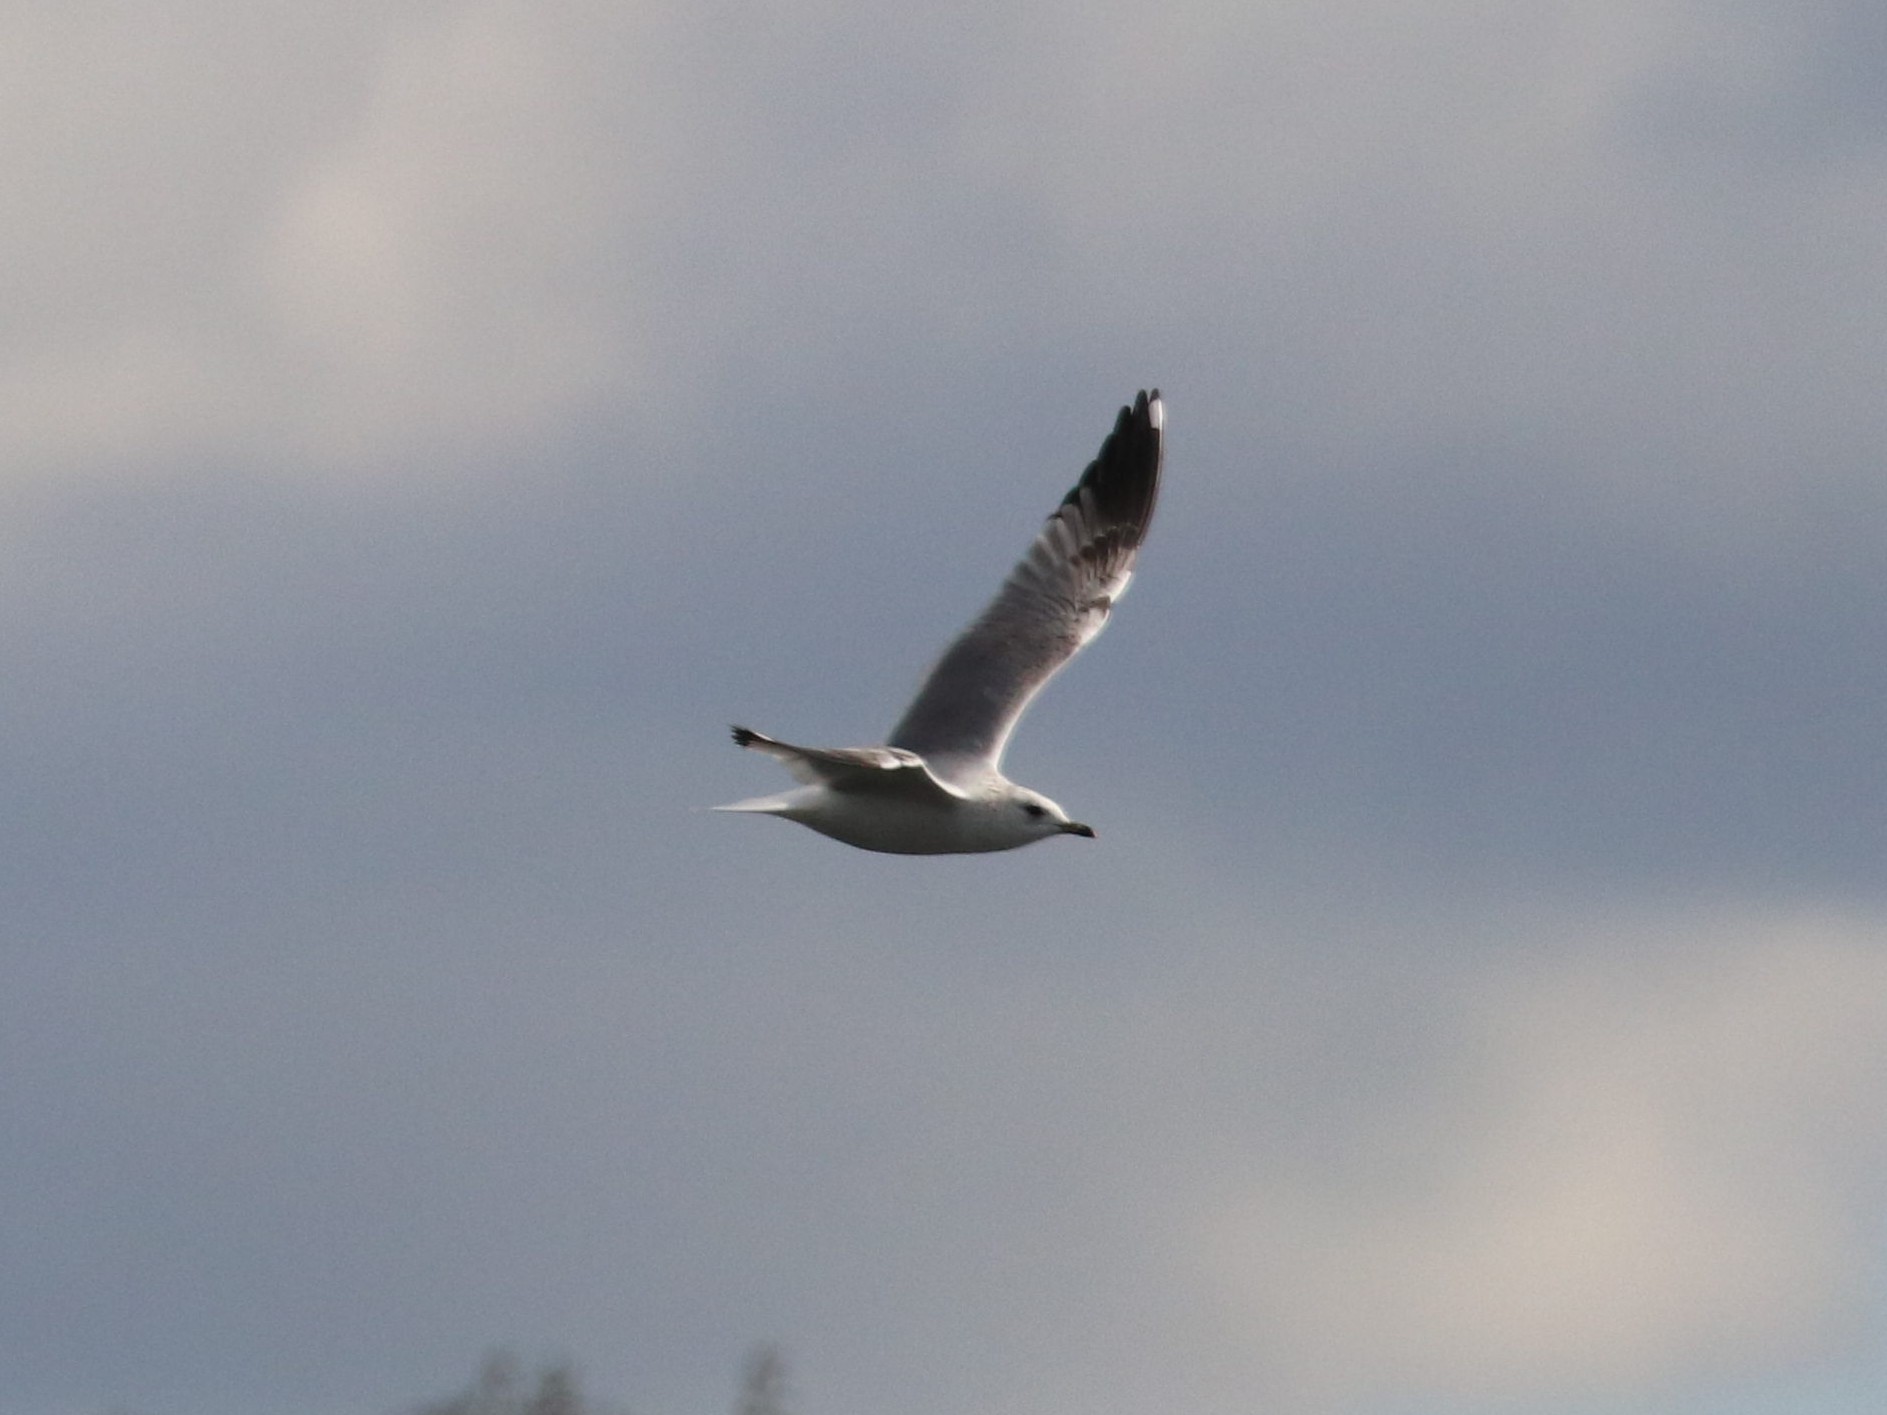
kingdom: Animalia
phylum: Chordata
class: Aves
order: Charadriiformes
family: Laridae
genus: Larus
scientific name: Larus canus
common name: Mew gull
